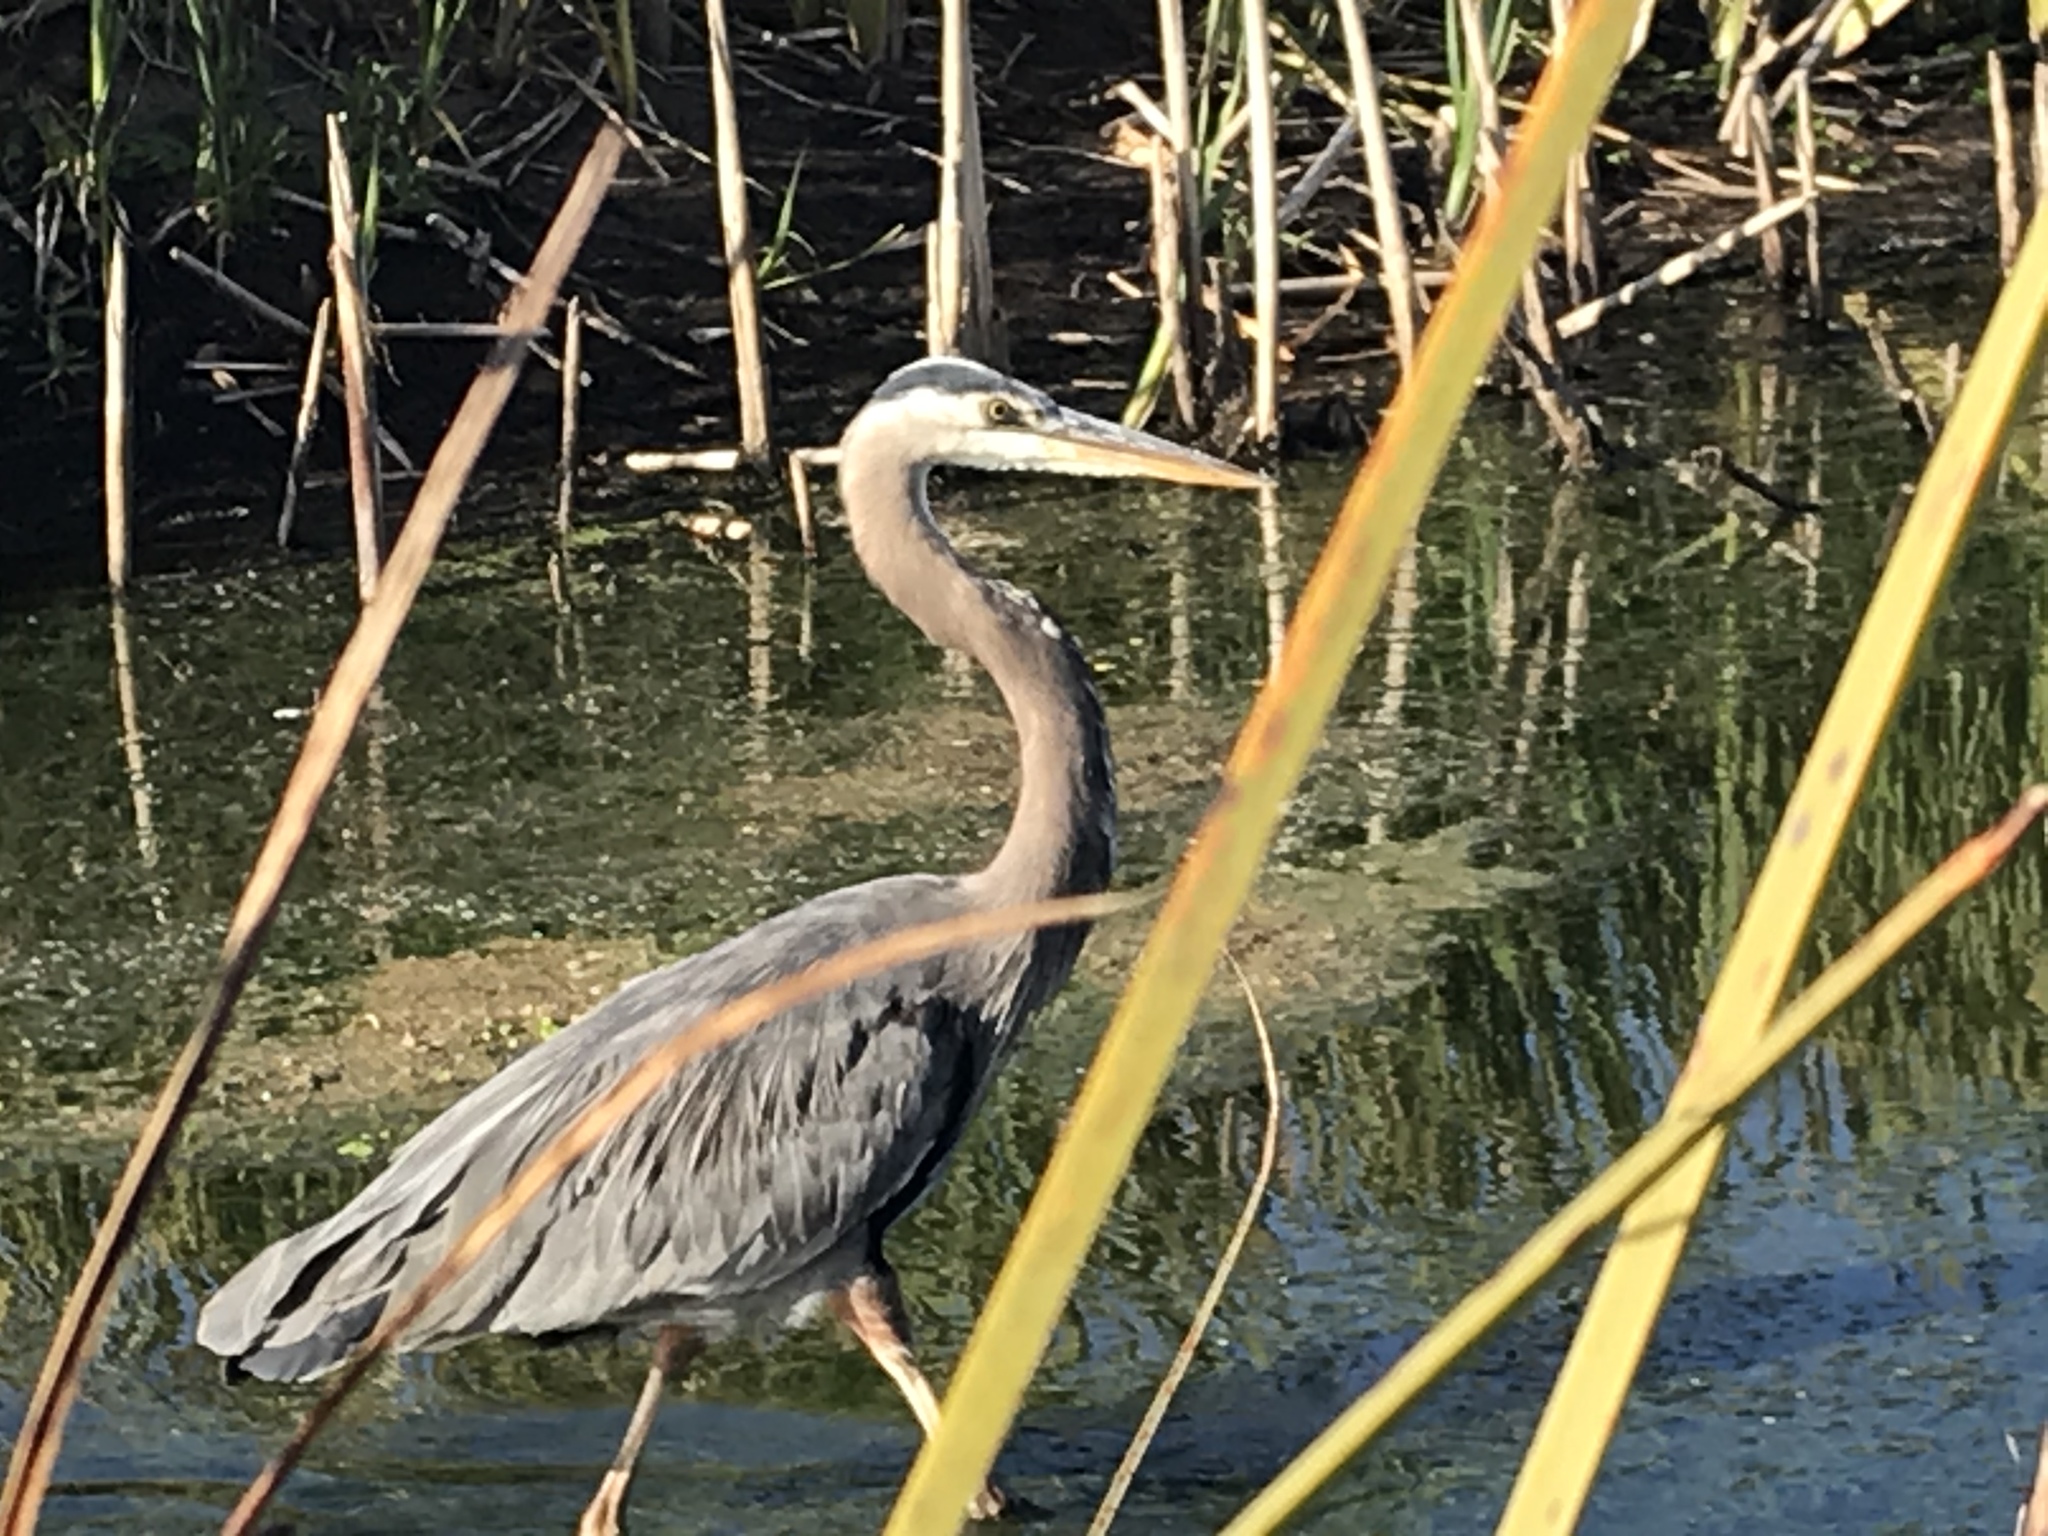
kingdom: Animalia
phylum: Chordata
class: Aves
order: Pelecaniformes
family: Ardeidae
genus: Ardea
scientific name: Ardea herodias
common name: Great blue heron
